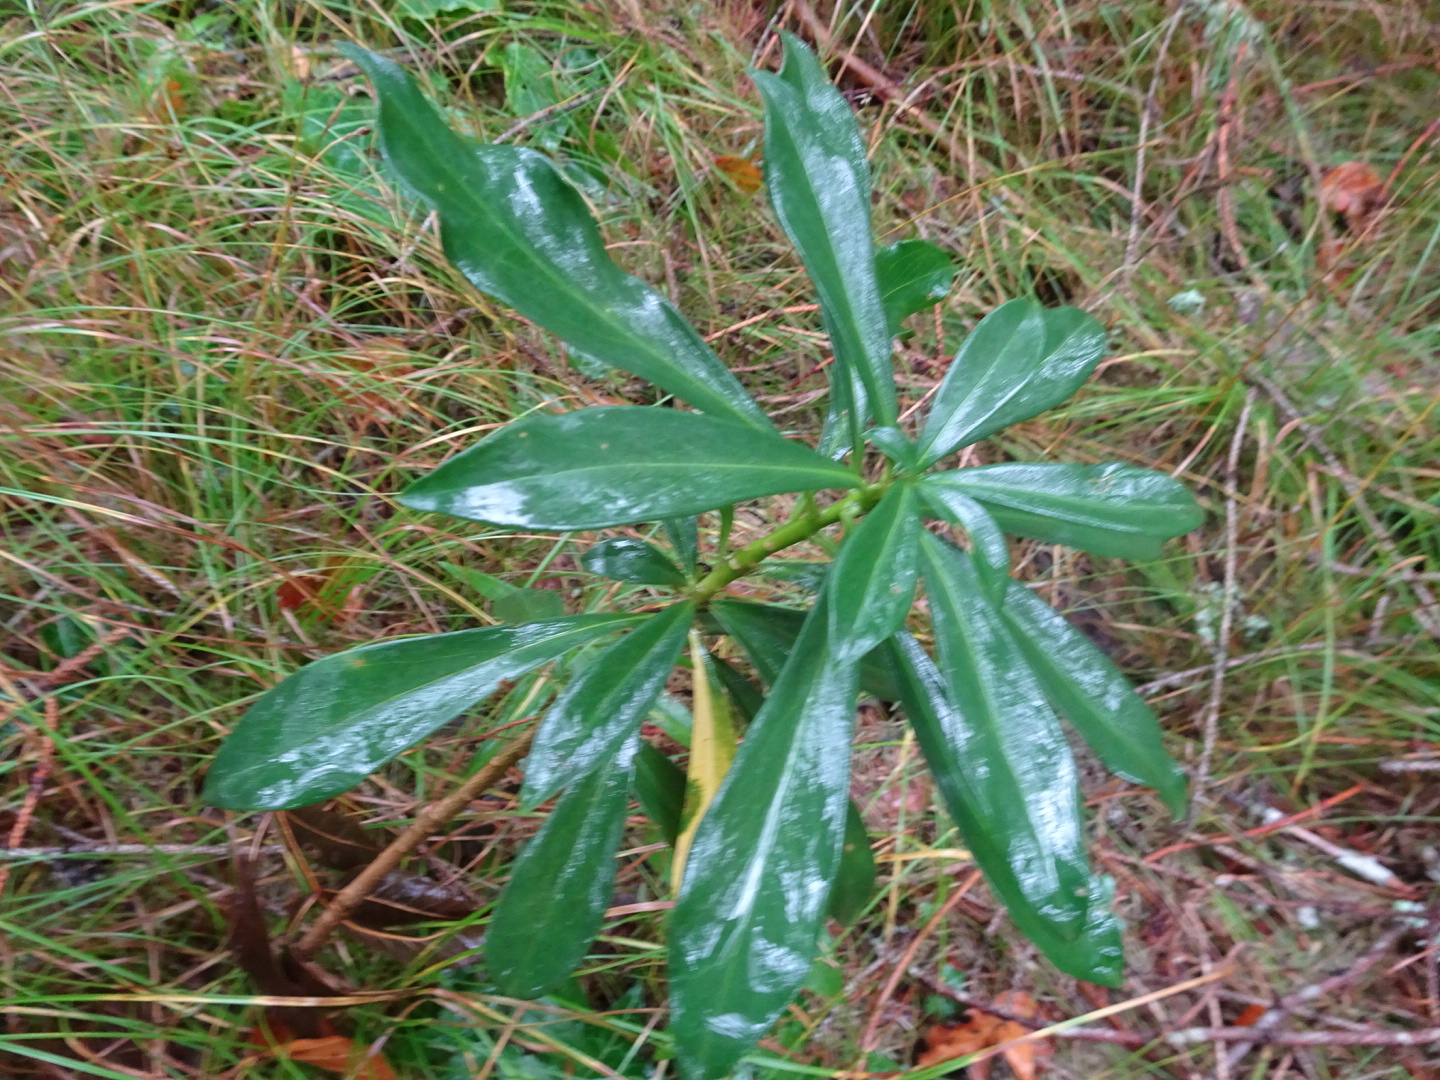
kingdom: Plantae
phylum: Tracheophyta
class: Magnoliopsida
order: Malvales
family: Thymelaeaceae
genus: Daphne
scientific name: Daphne laureola
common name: Spurge-laurel
